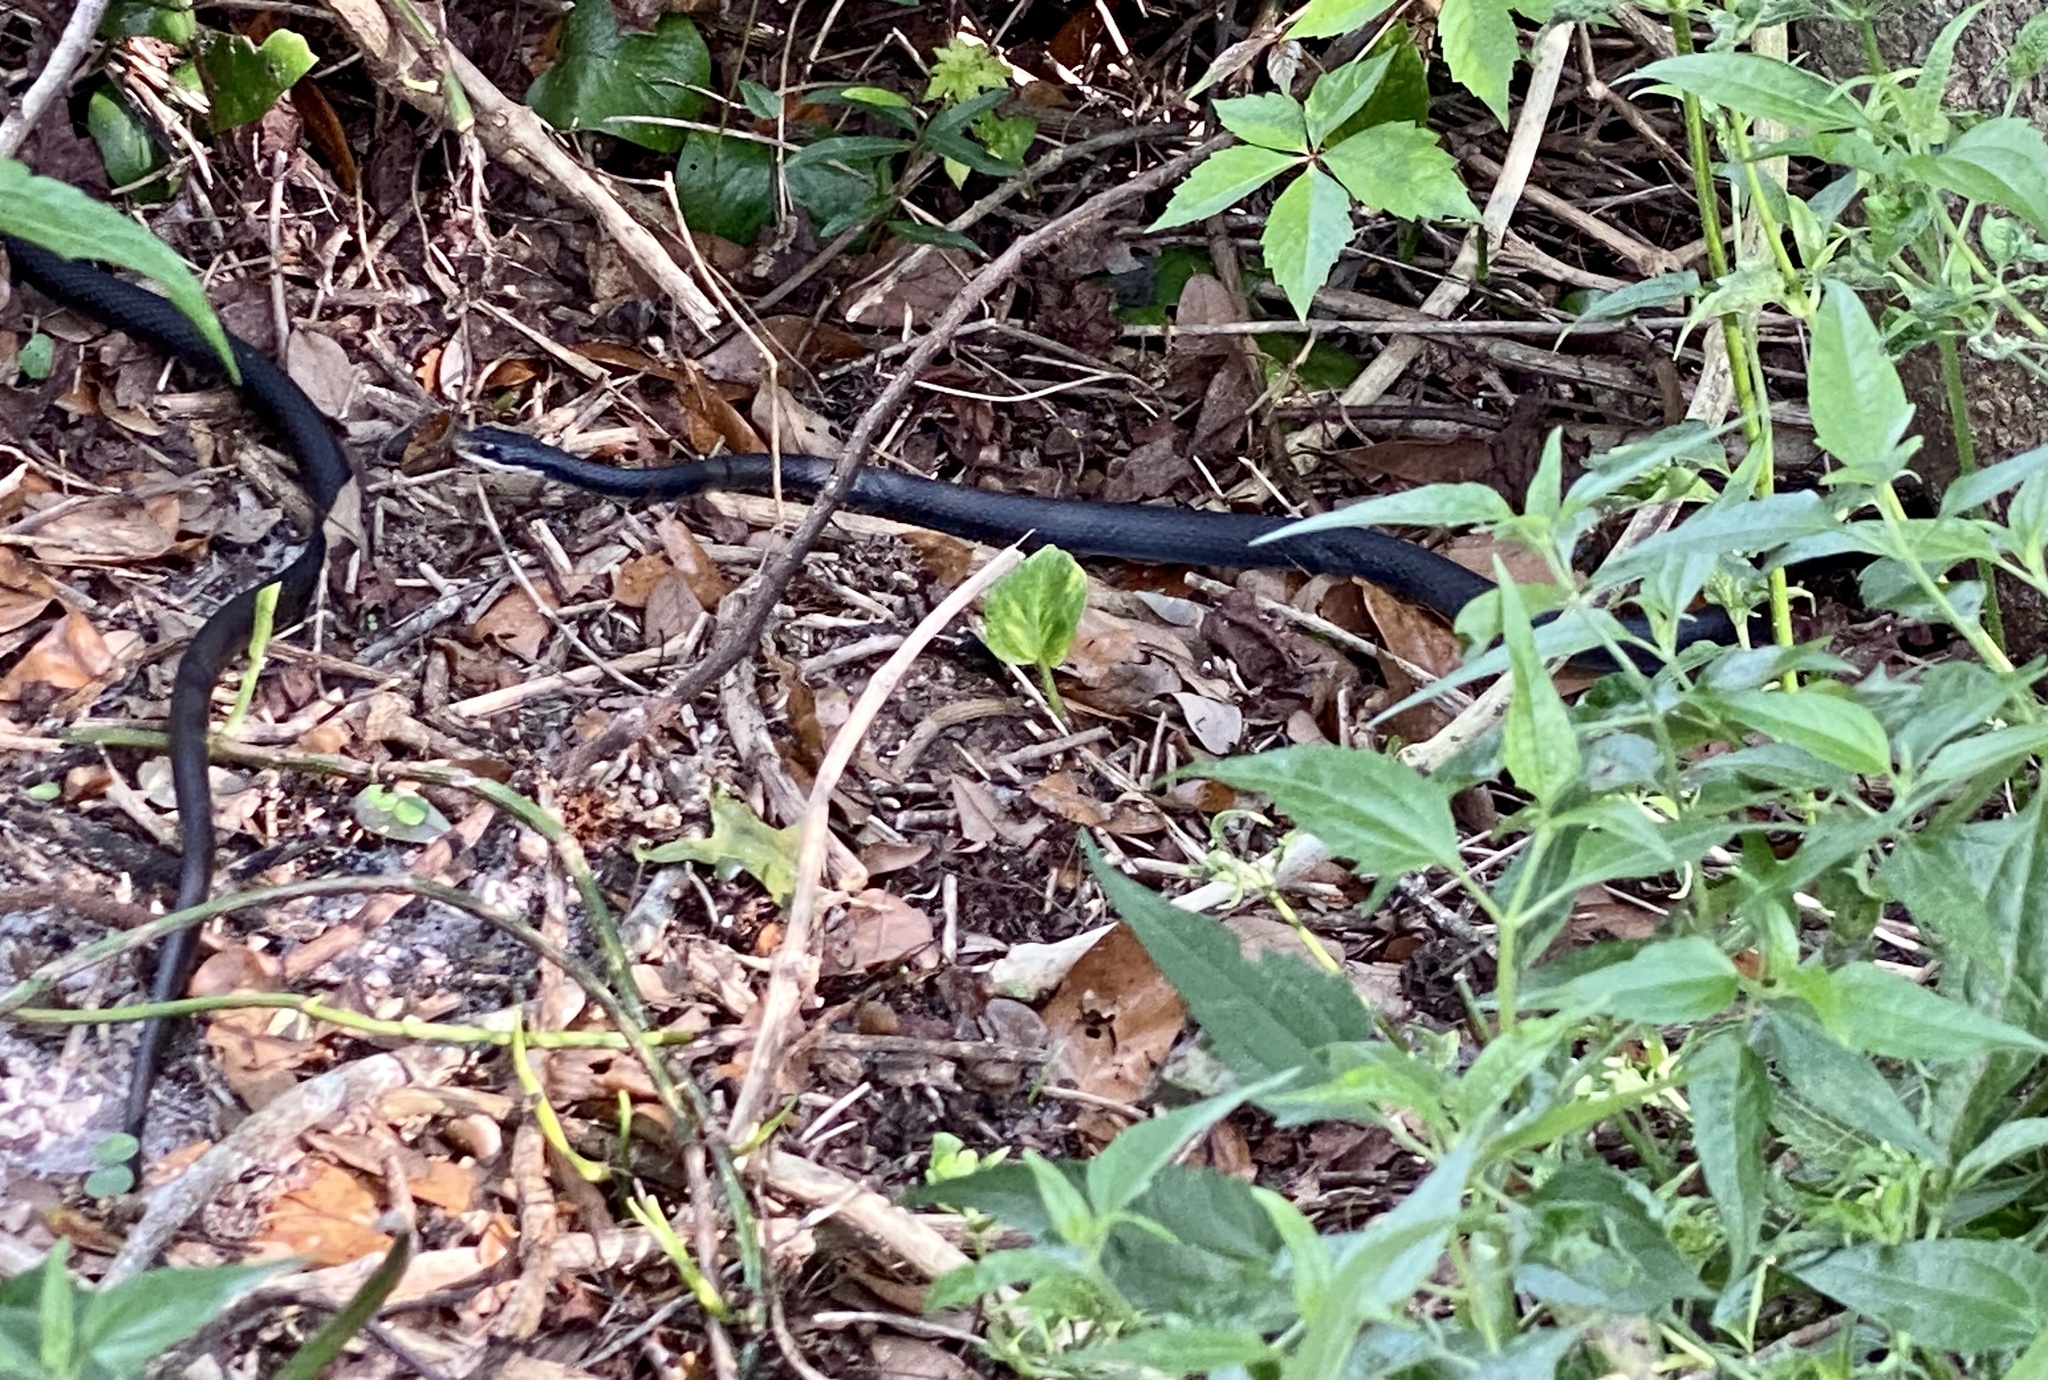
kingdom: Animalia
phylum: Chordata
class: Squamata
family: Colubridae
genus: Coluber
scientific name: Coluber constrictor
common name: Eastern racer
